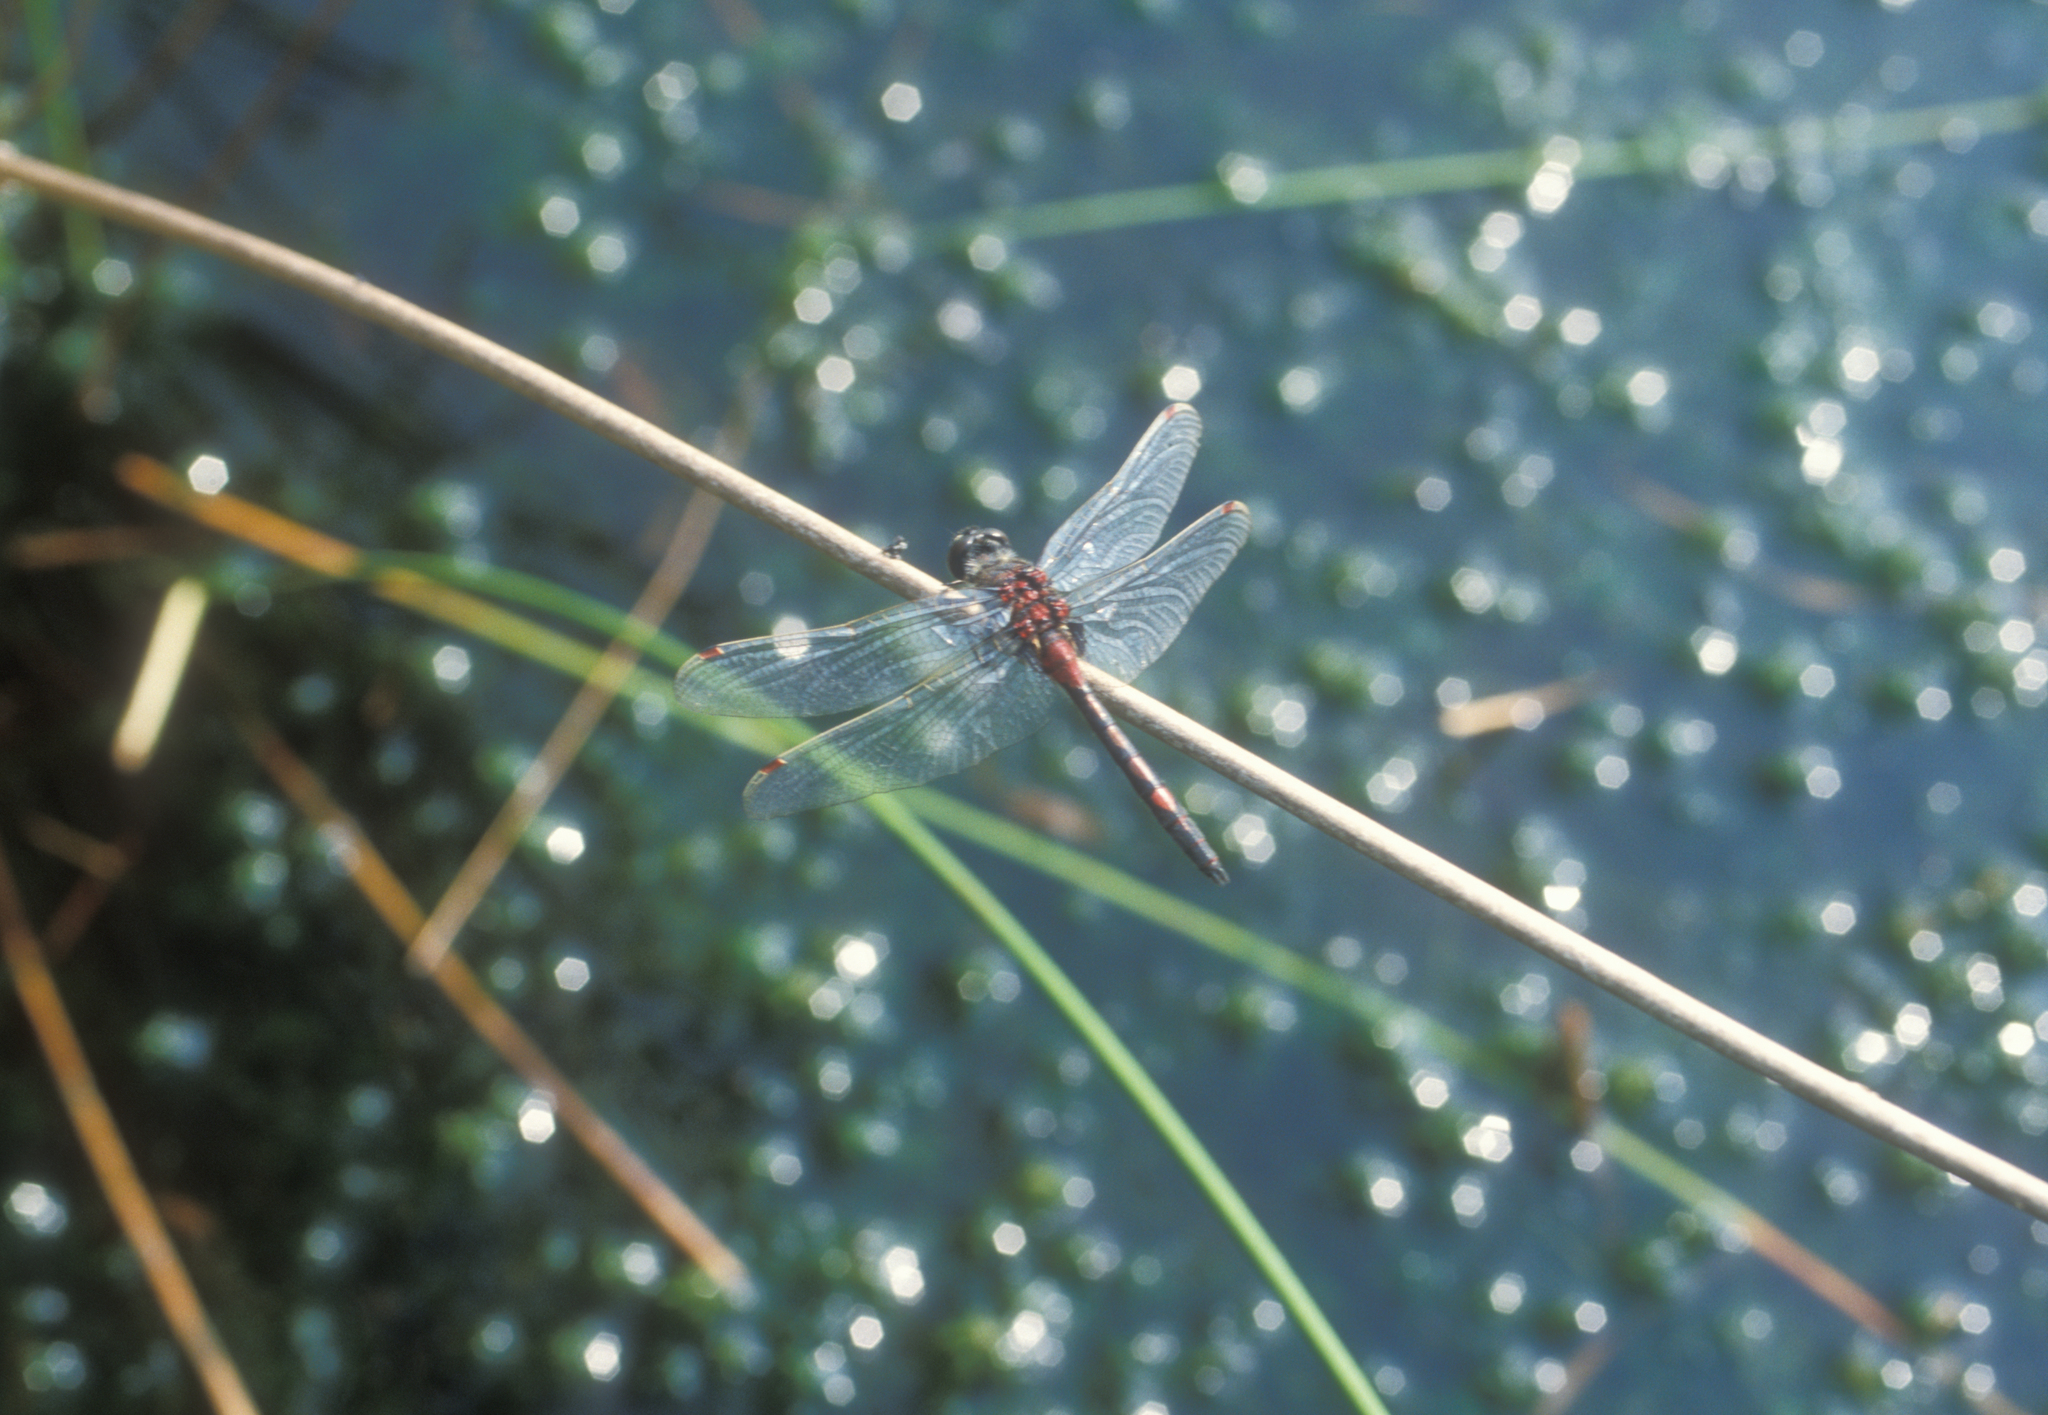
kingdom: Animalia
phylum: Arthropoda
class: Insecta
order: Odonata
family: Libellulidae
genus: Leucorrhinia
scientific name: Leucorrhinia rubicunda
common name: Ruby whiteface
